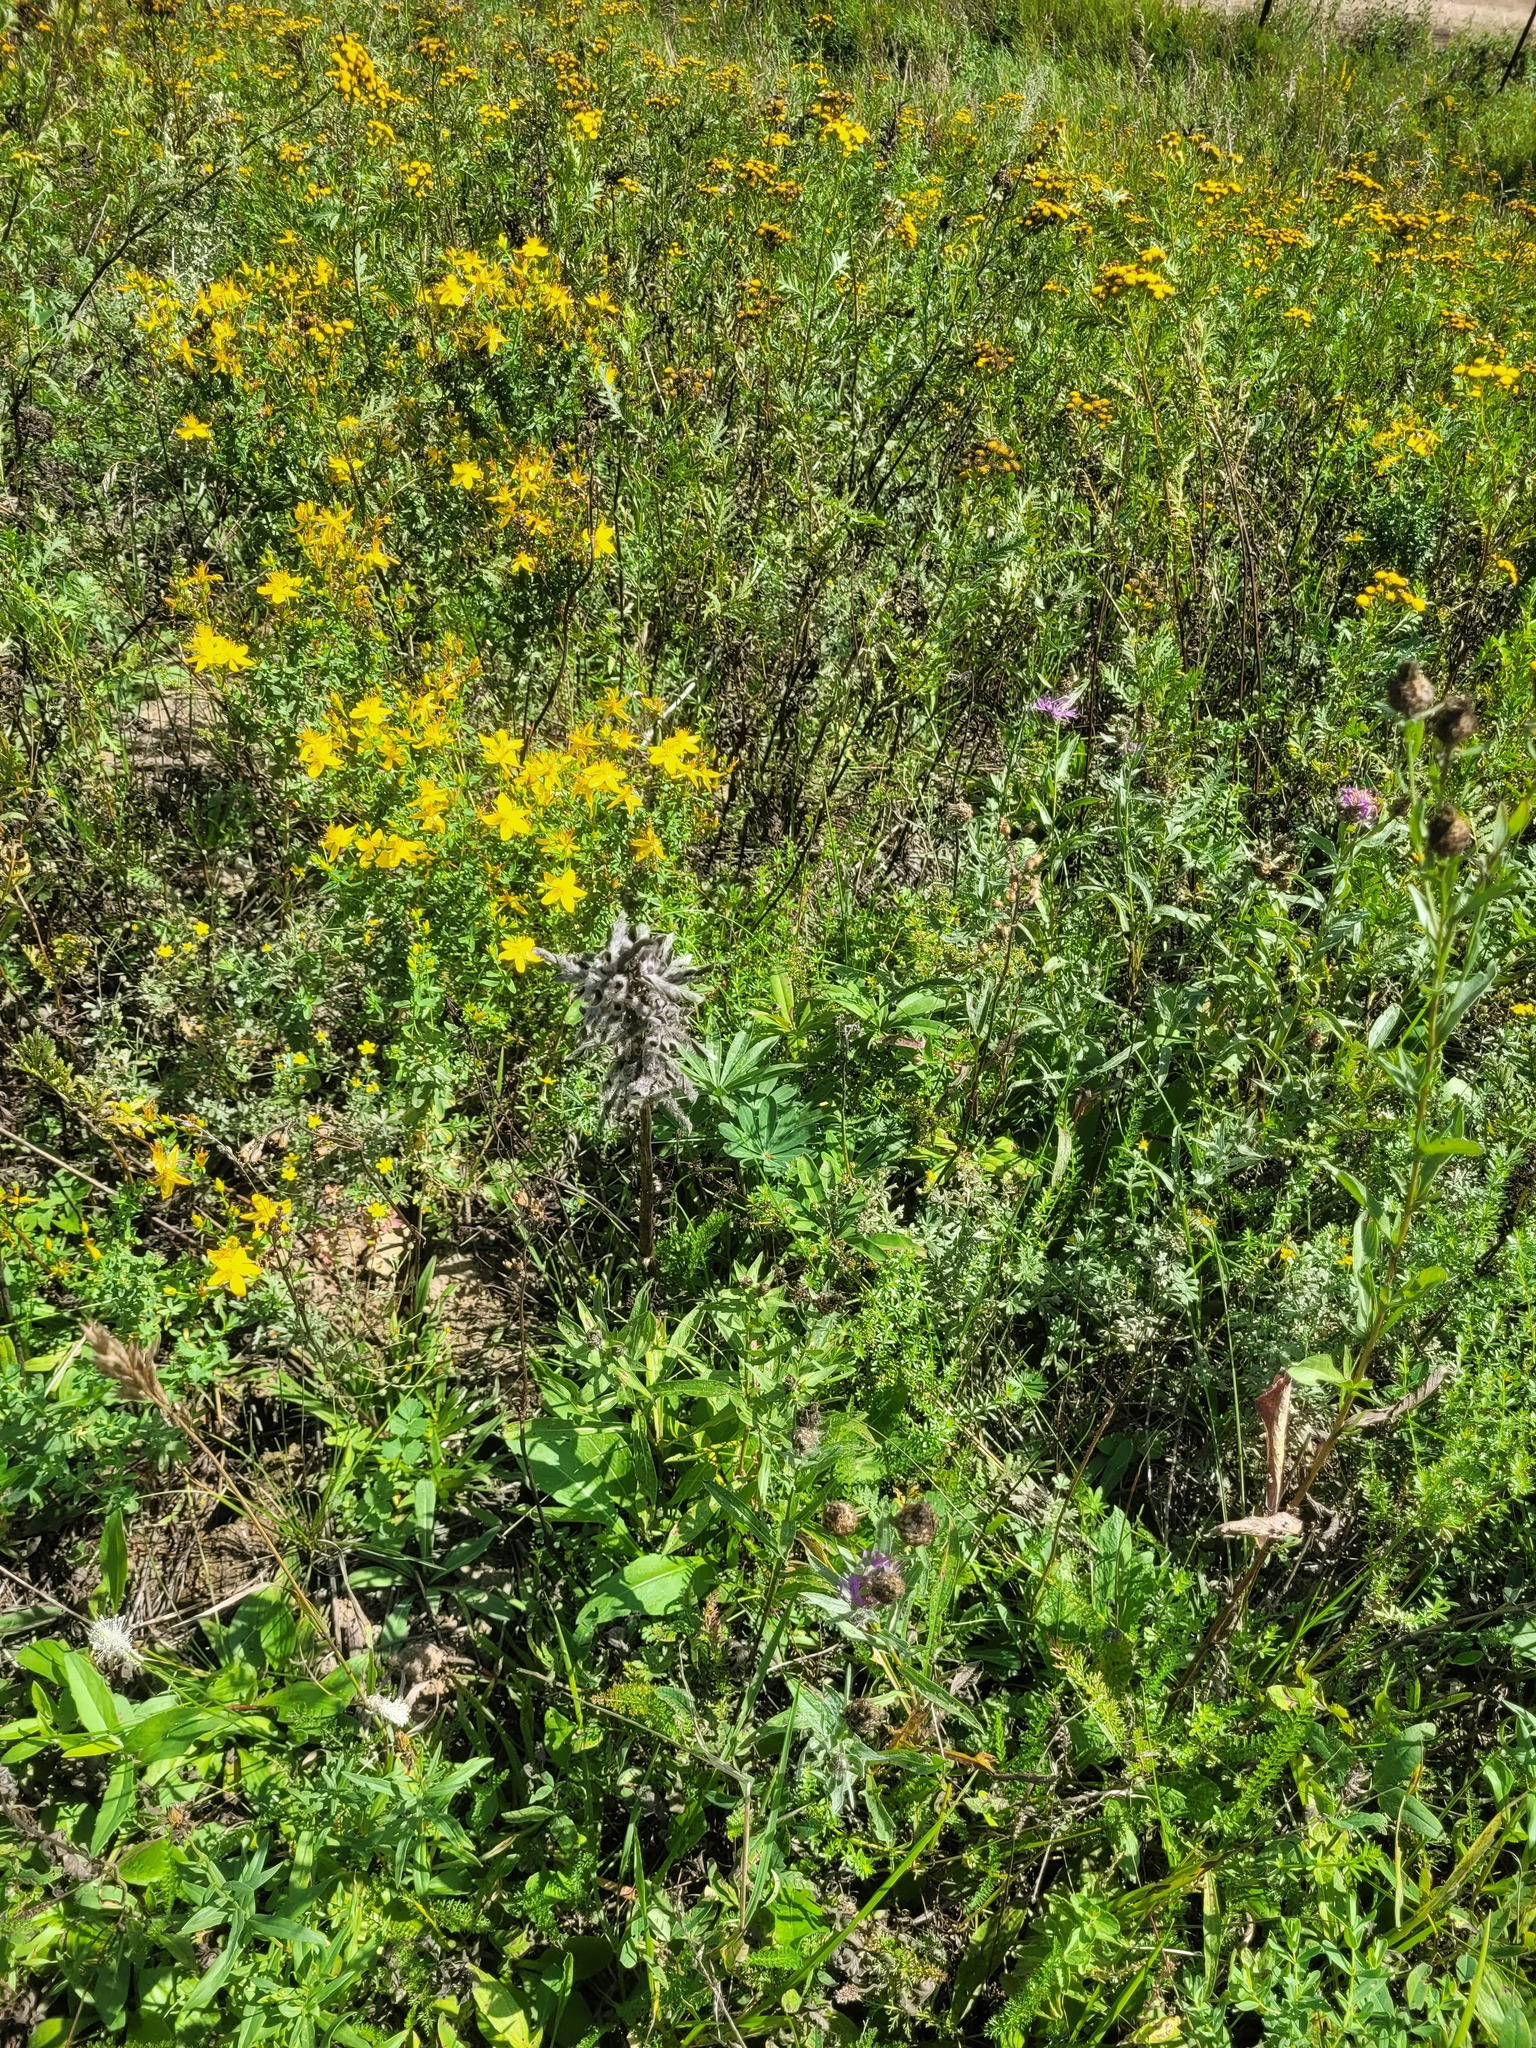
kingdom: Plantae
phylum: Tracheophyta
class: Magnoliopsida
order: Fabales
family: Fabaceae
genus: Lupinus
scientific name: Lupinus polyphyllus
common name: Garden lupin
